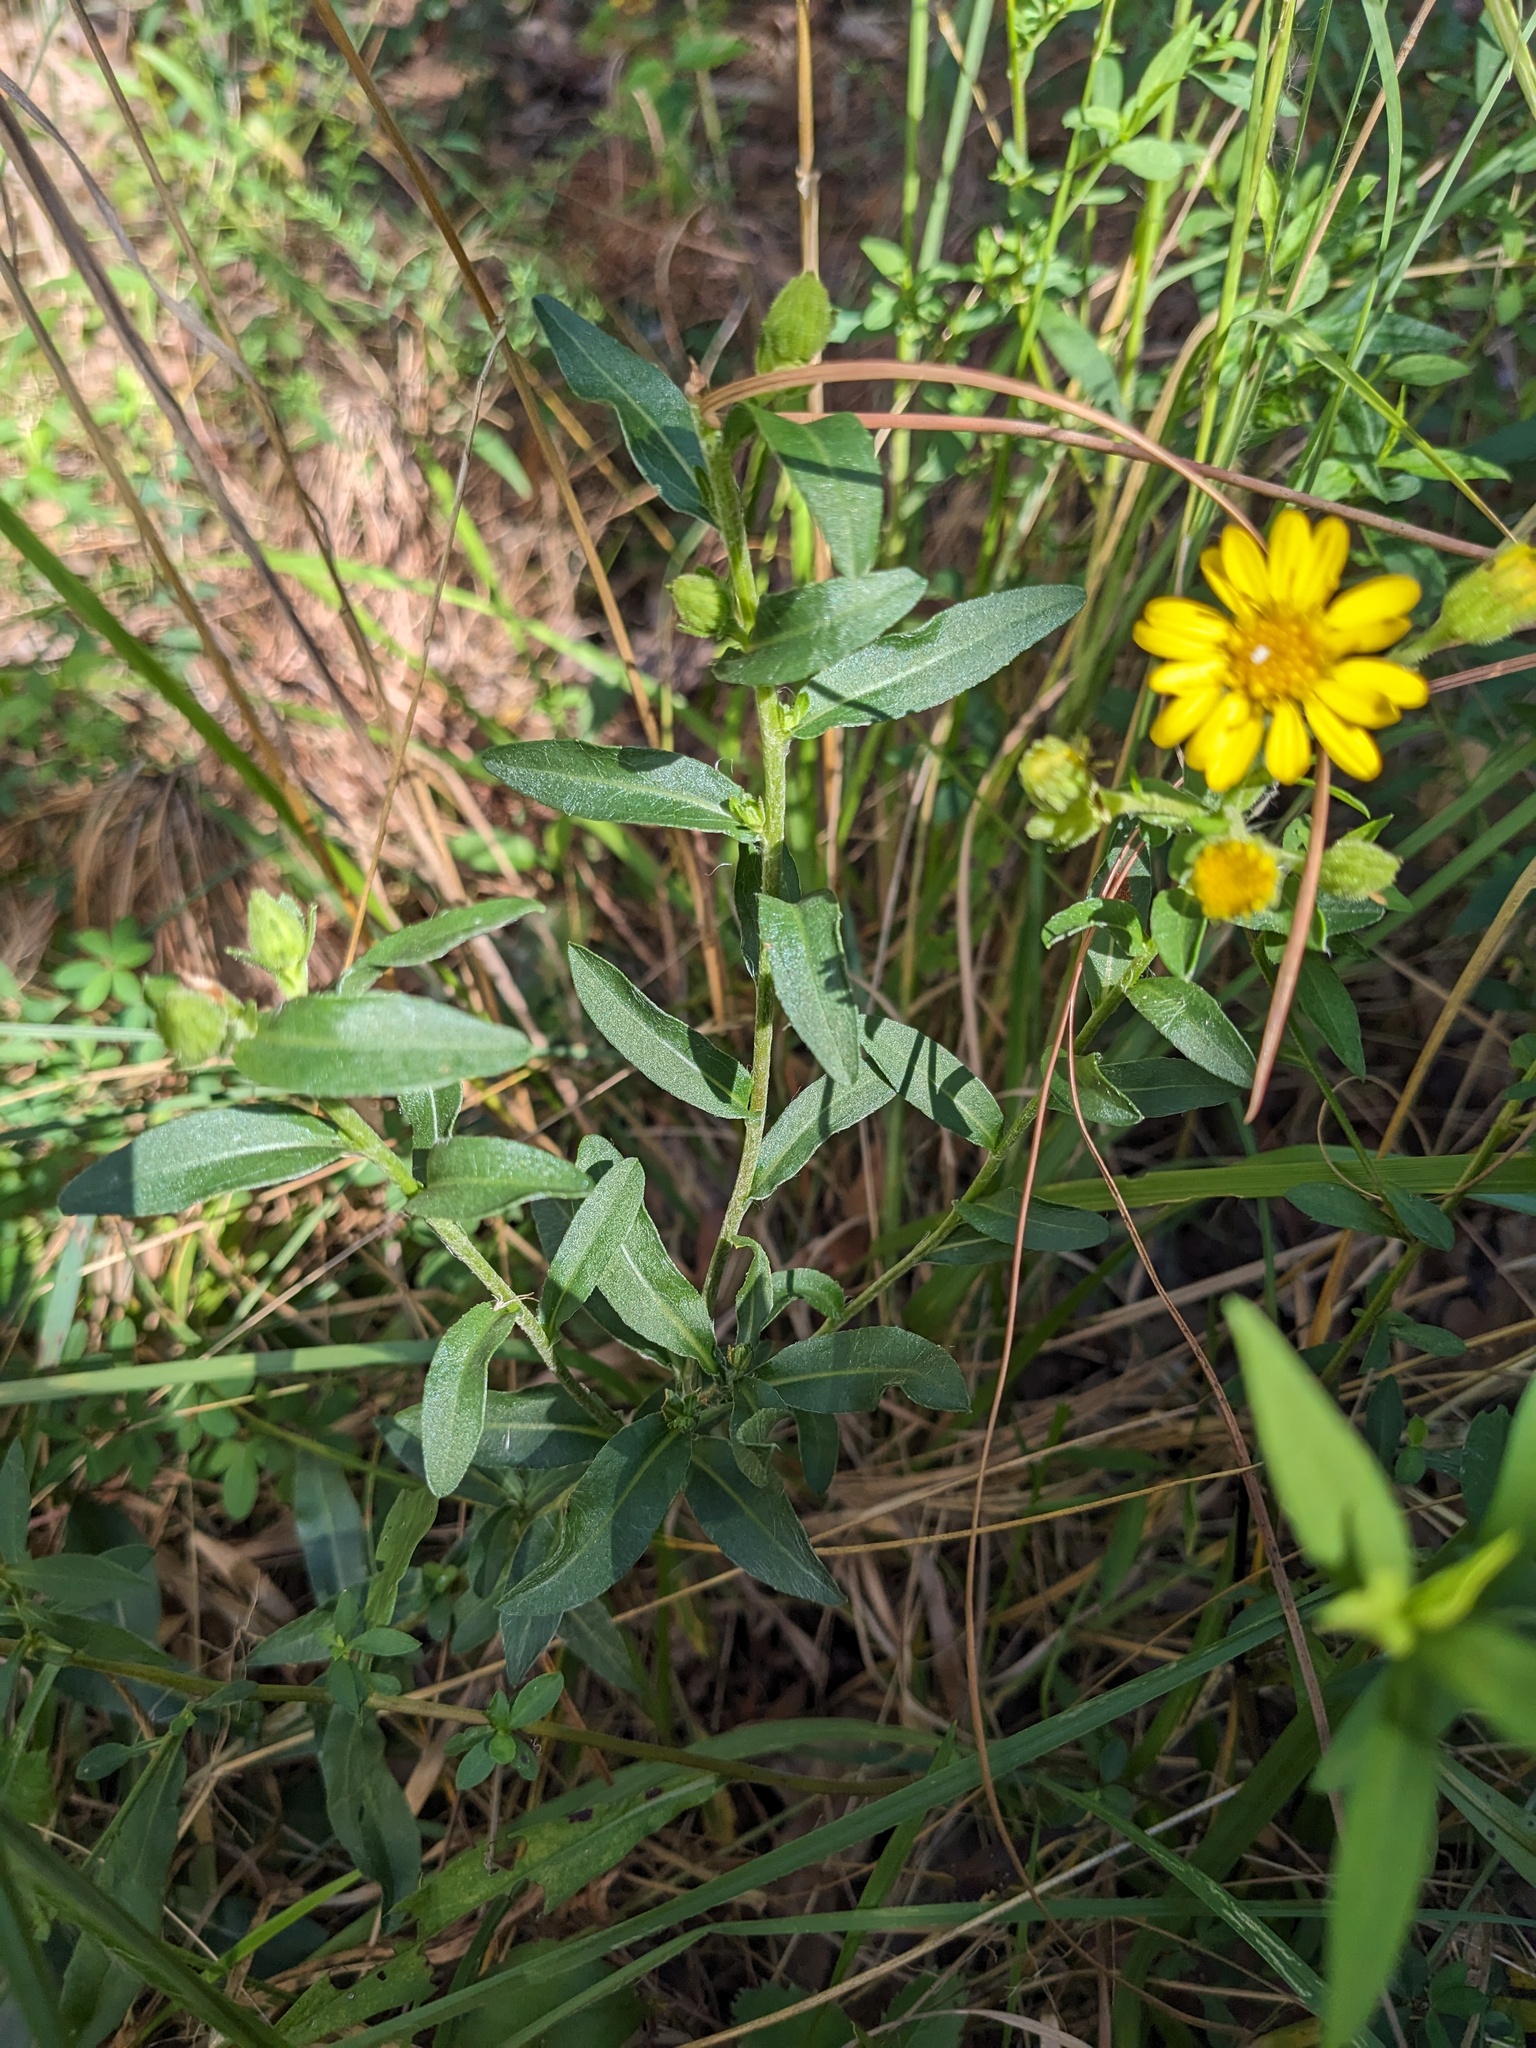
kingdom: Plantae
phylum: Tracheophyta
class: Magnoliopsida
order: Asterales
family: Asteraceae
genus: Chrysopsis
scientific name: Chrysopsis mariana
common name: Maryland golden-aster
